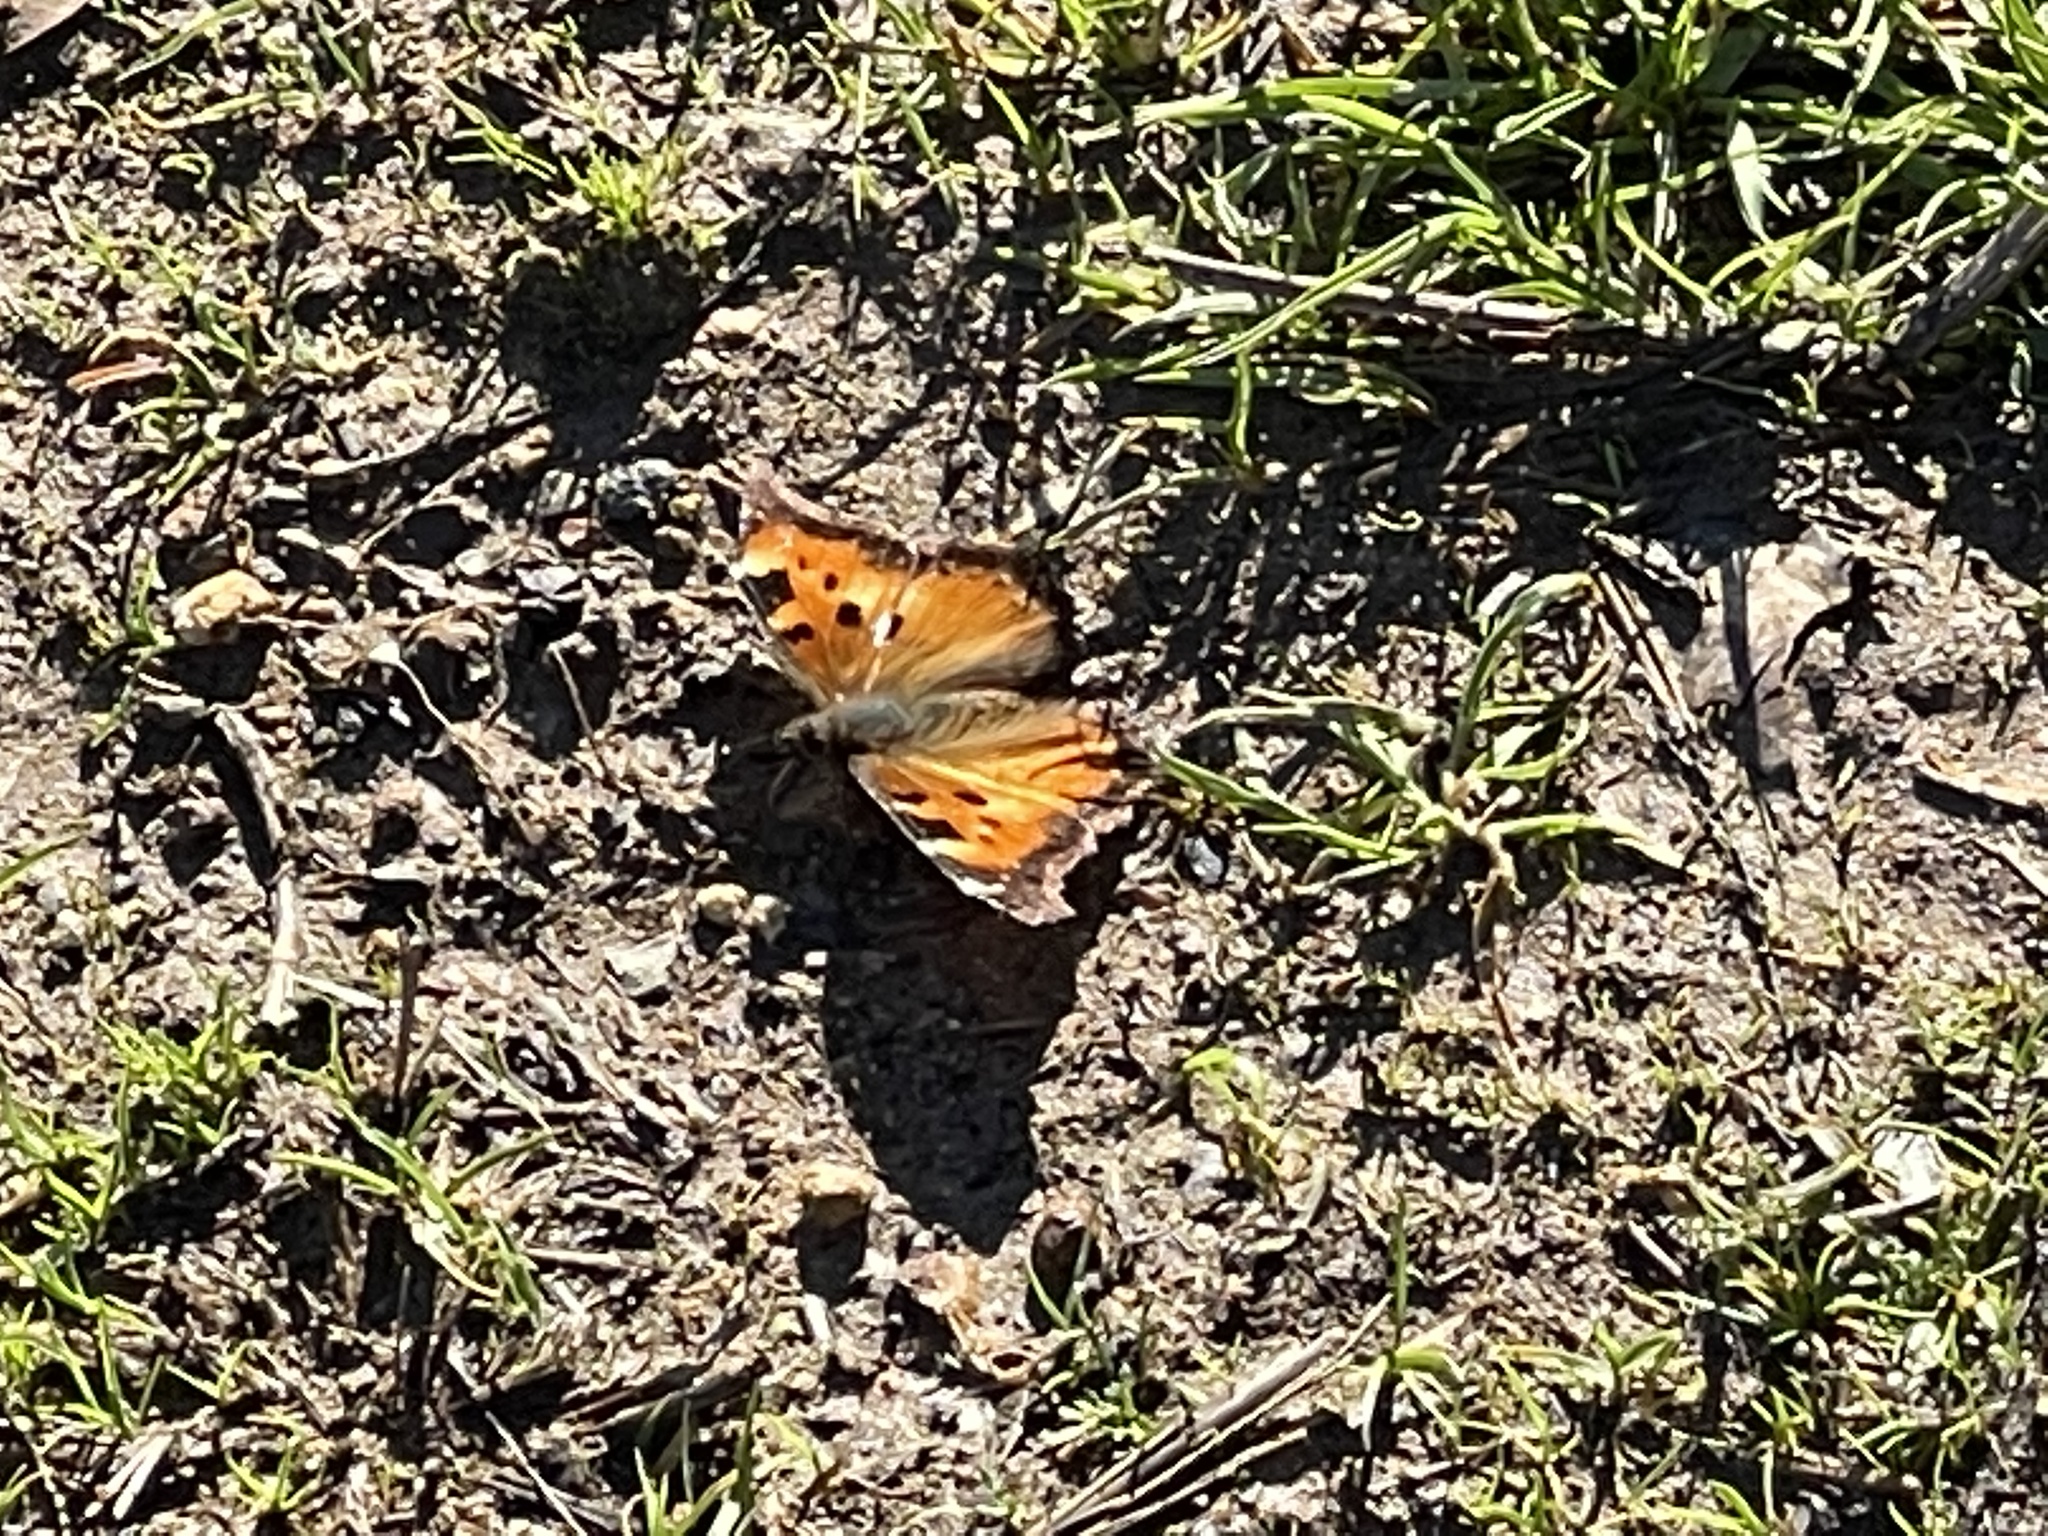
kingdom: Animalia
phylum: Arthropoda
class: Insecta
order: Lepidoptera
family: Nymphalidae
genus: Nymphalis
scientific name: Nymphalis californica
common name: California tortoiseshell
